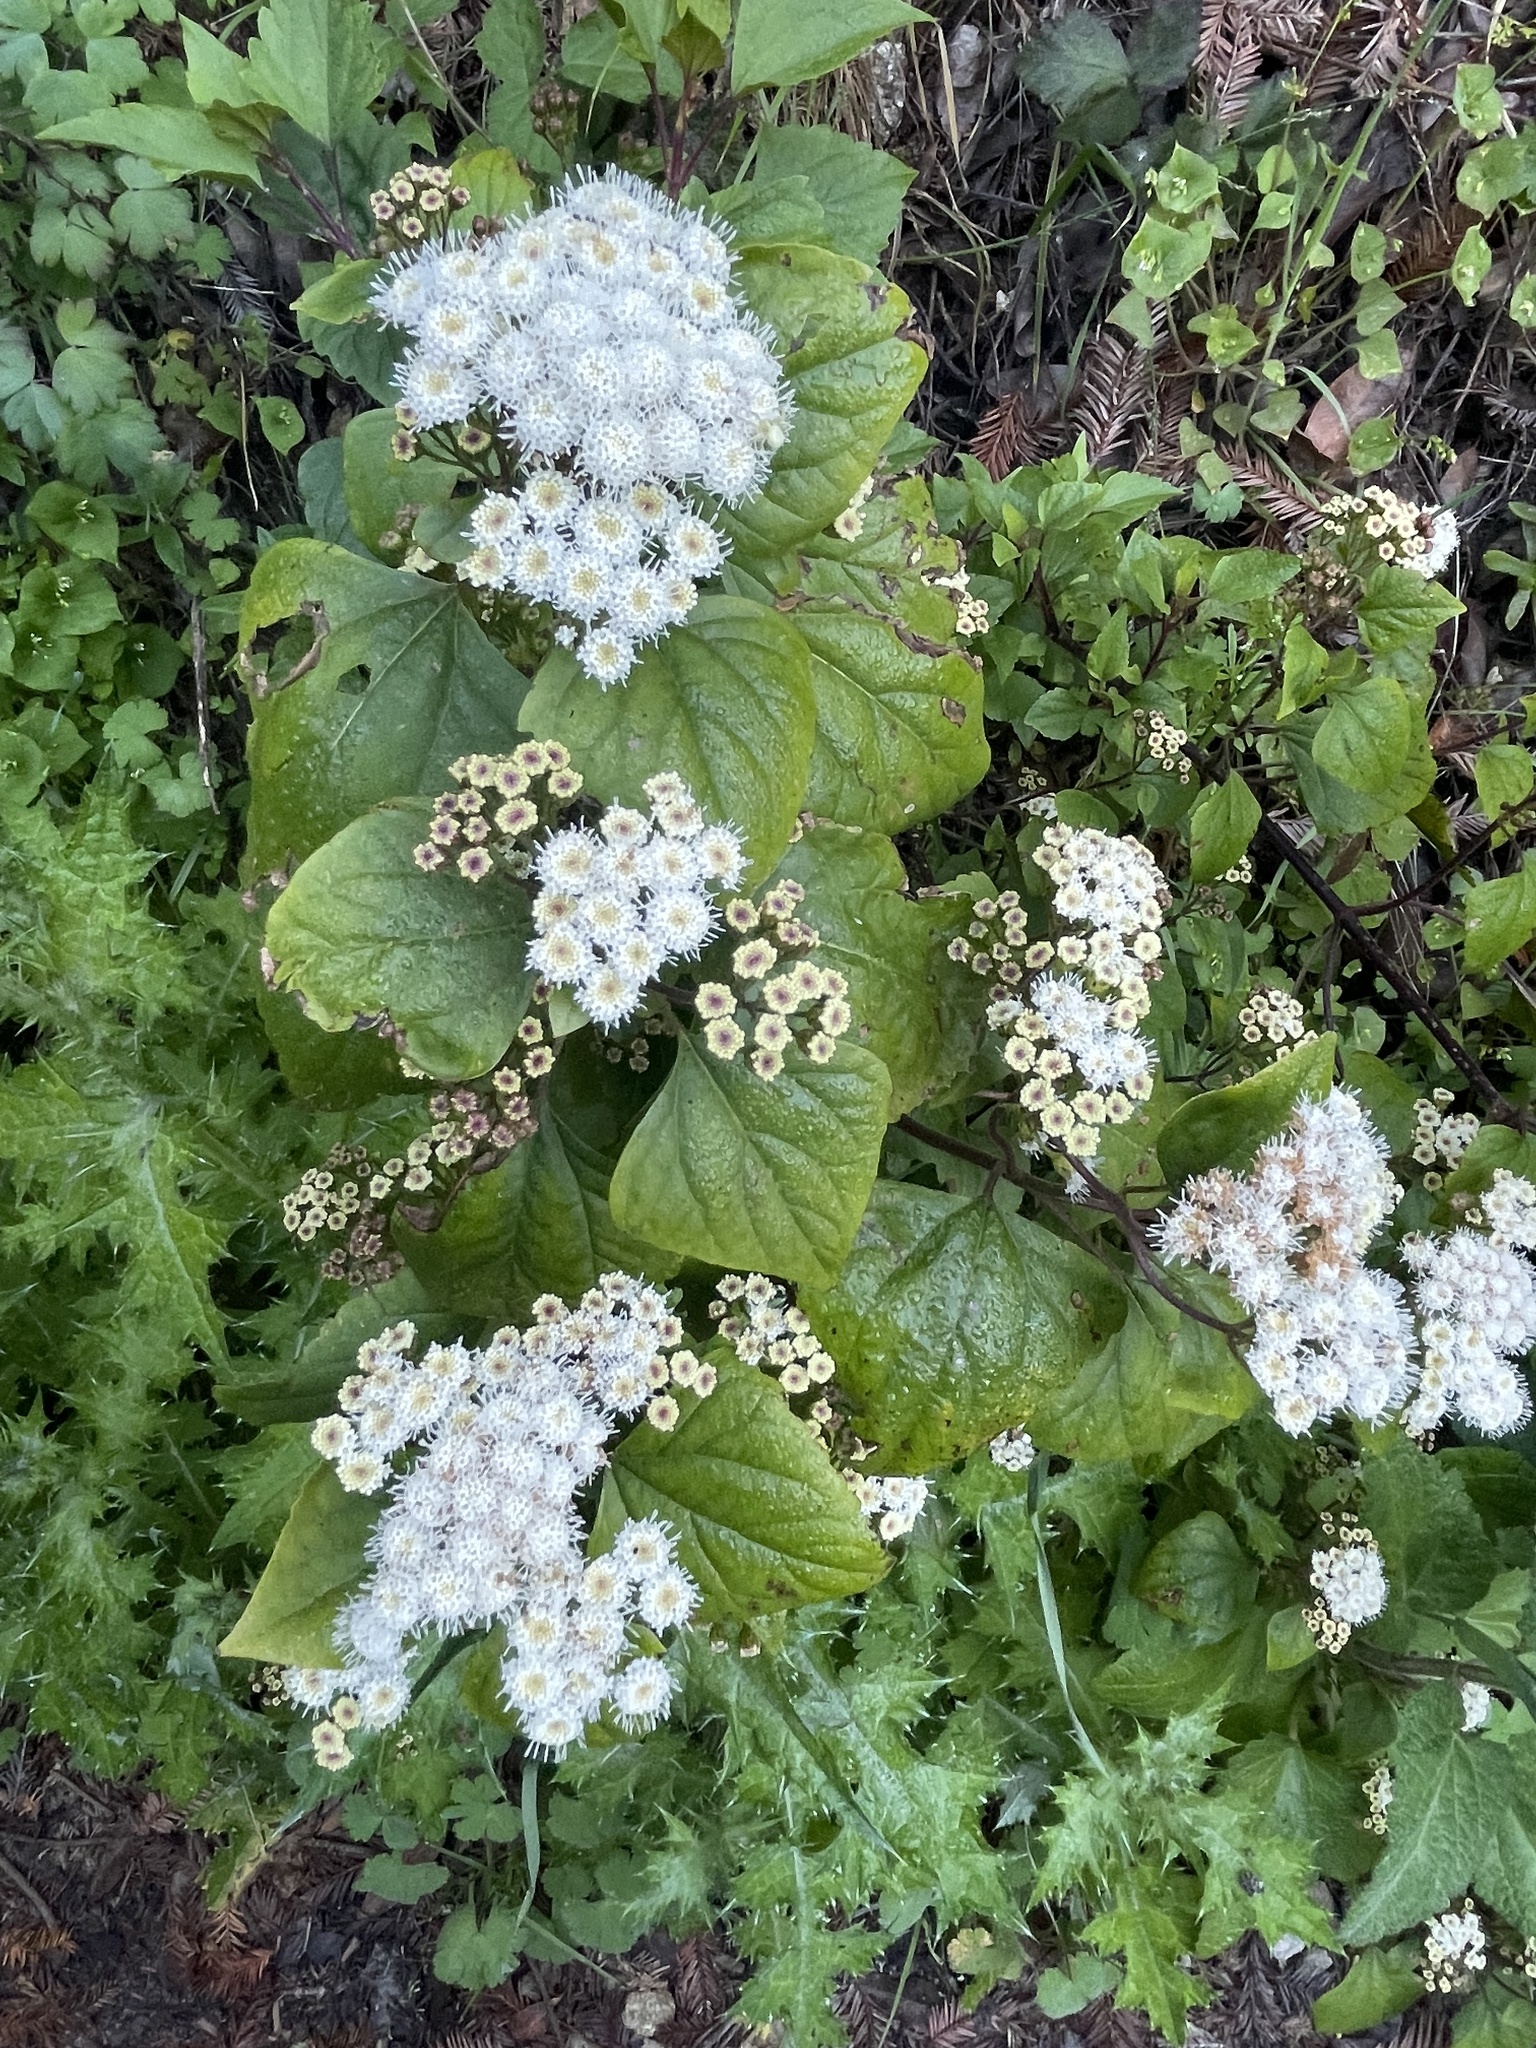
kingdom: Plantae
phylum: Tracheophyta
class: Magnoliopsida
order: Asterales
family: Asteraceae
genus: Ageratina
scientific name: Ageratina adenophora
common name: Sticky snakeroot
